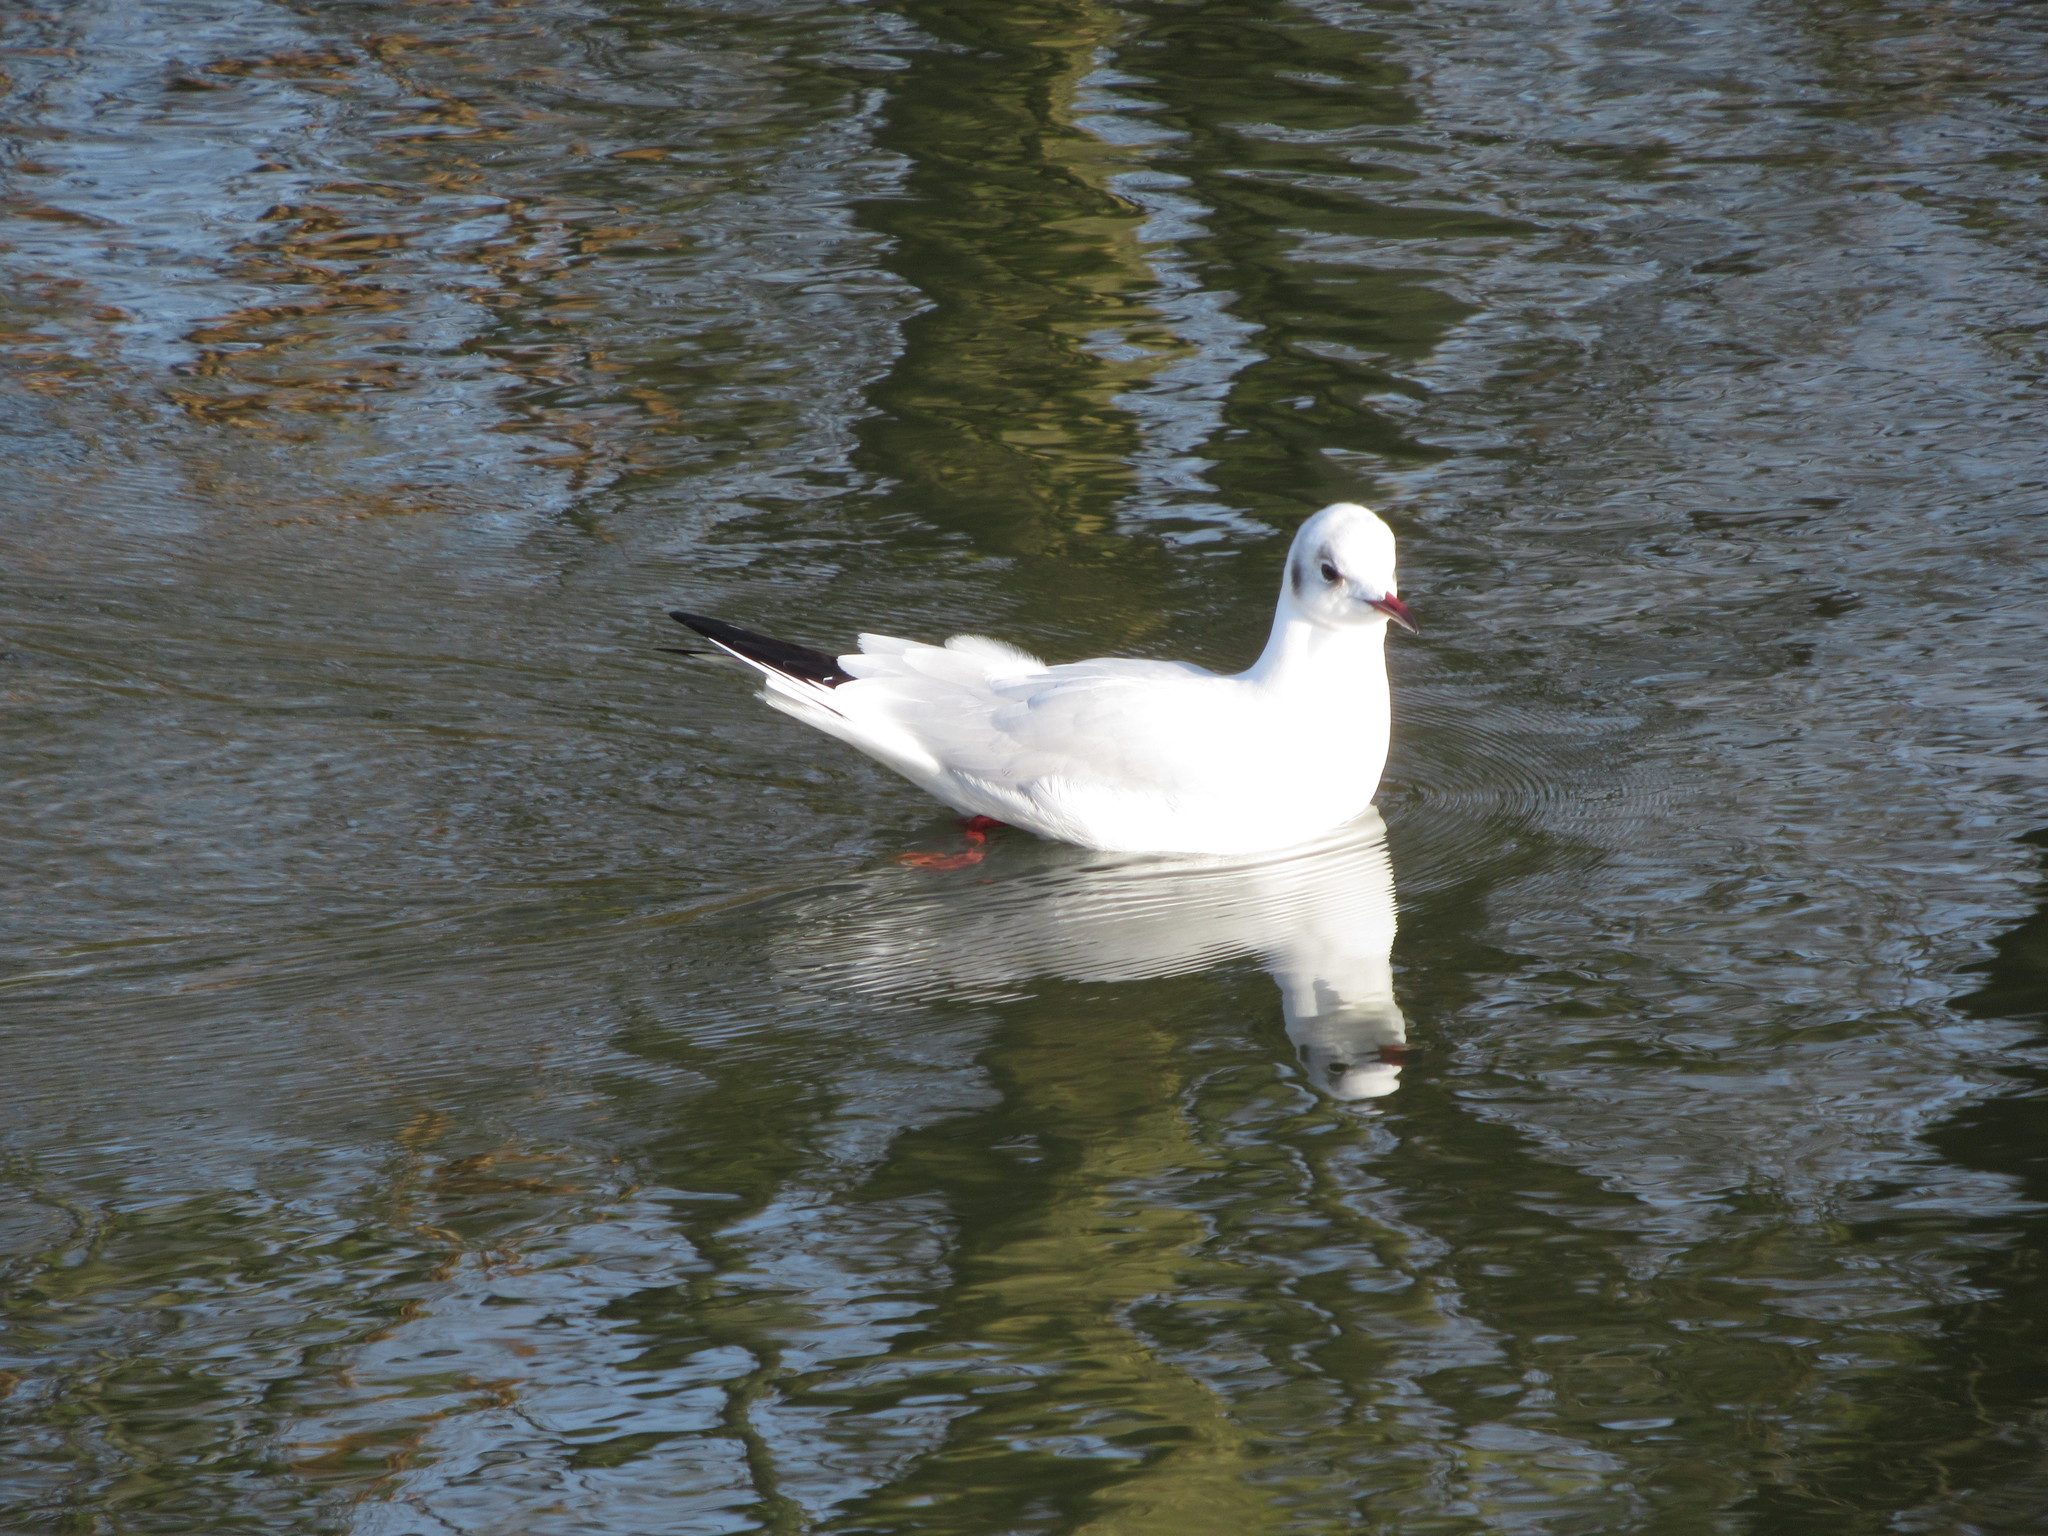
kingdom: Animalia
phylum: Chordata
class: Aves
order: Charadriiformes
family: Laridae
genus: Chroicocephalus
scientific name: Chroicocephalus ridibundus
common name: Black-headed gull
